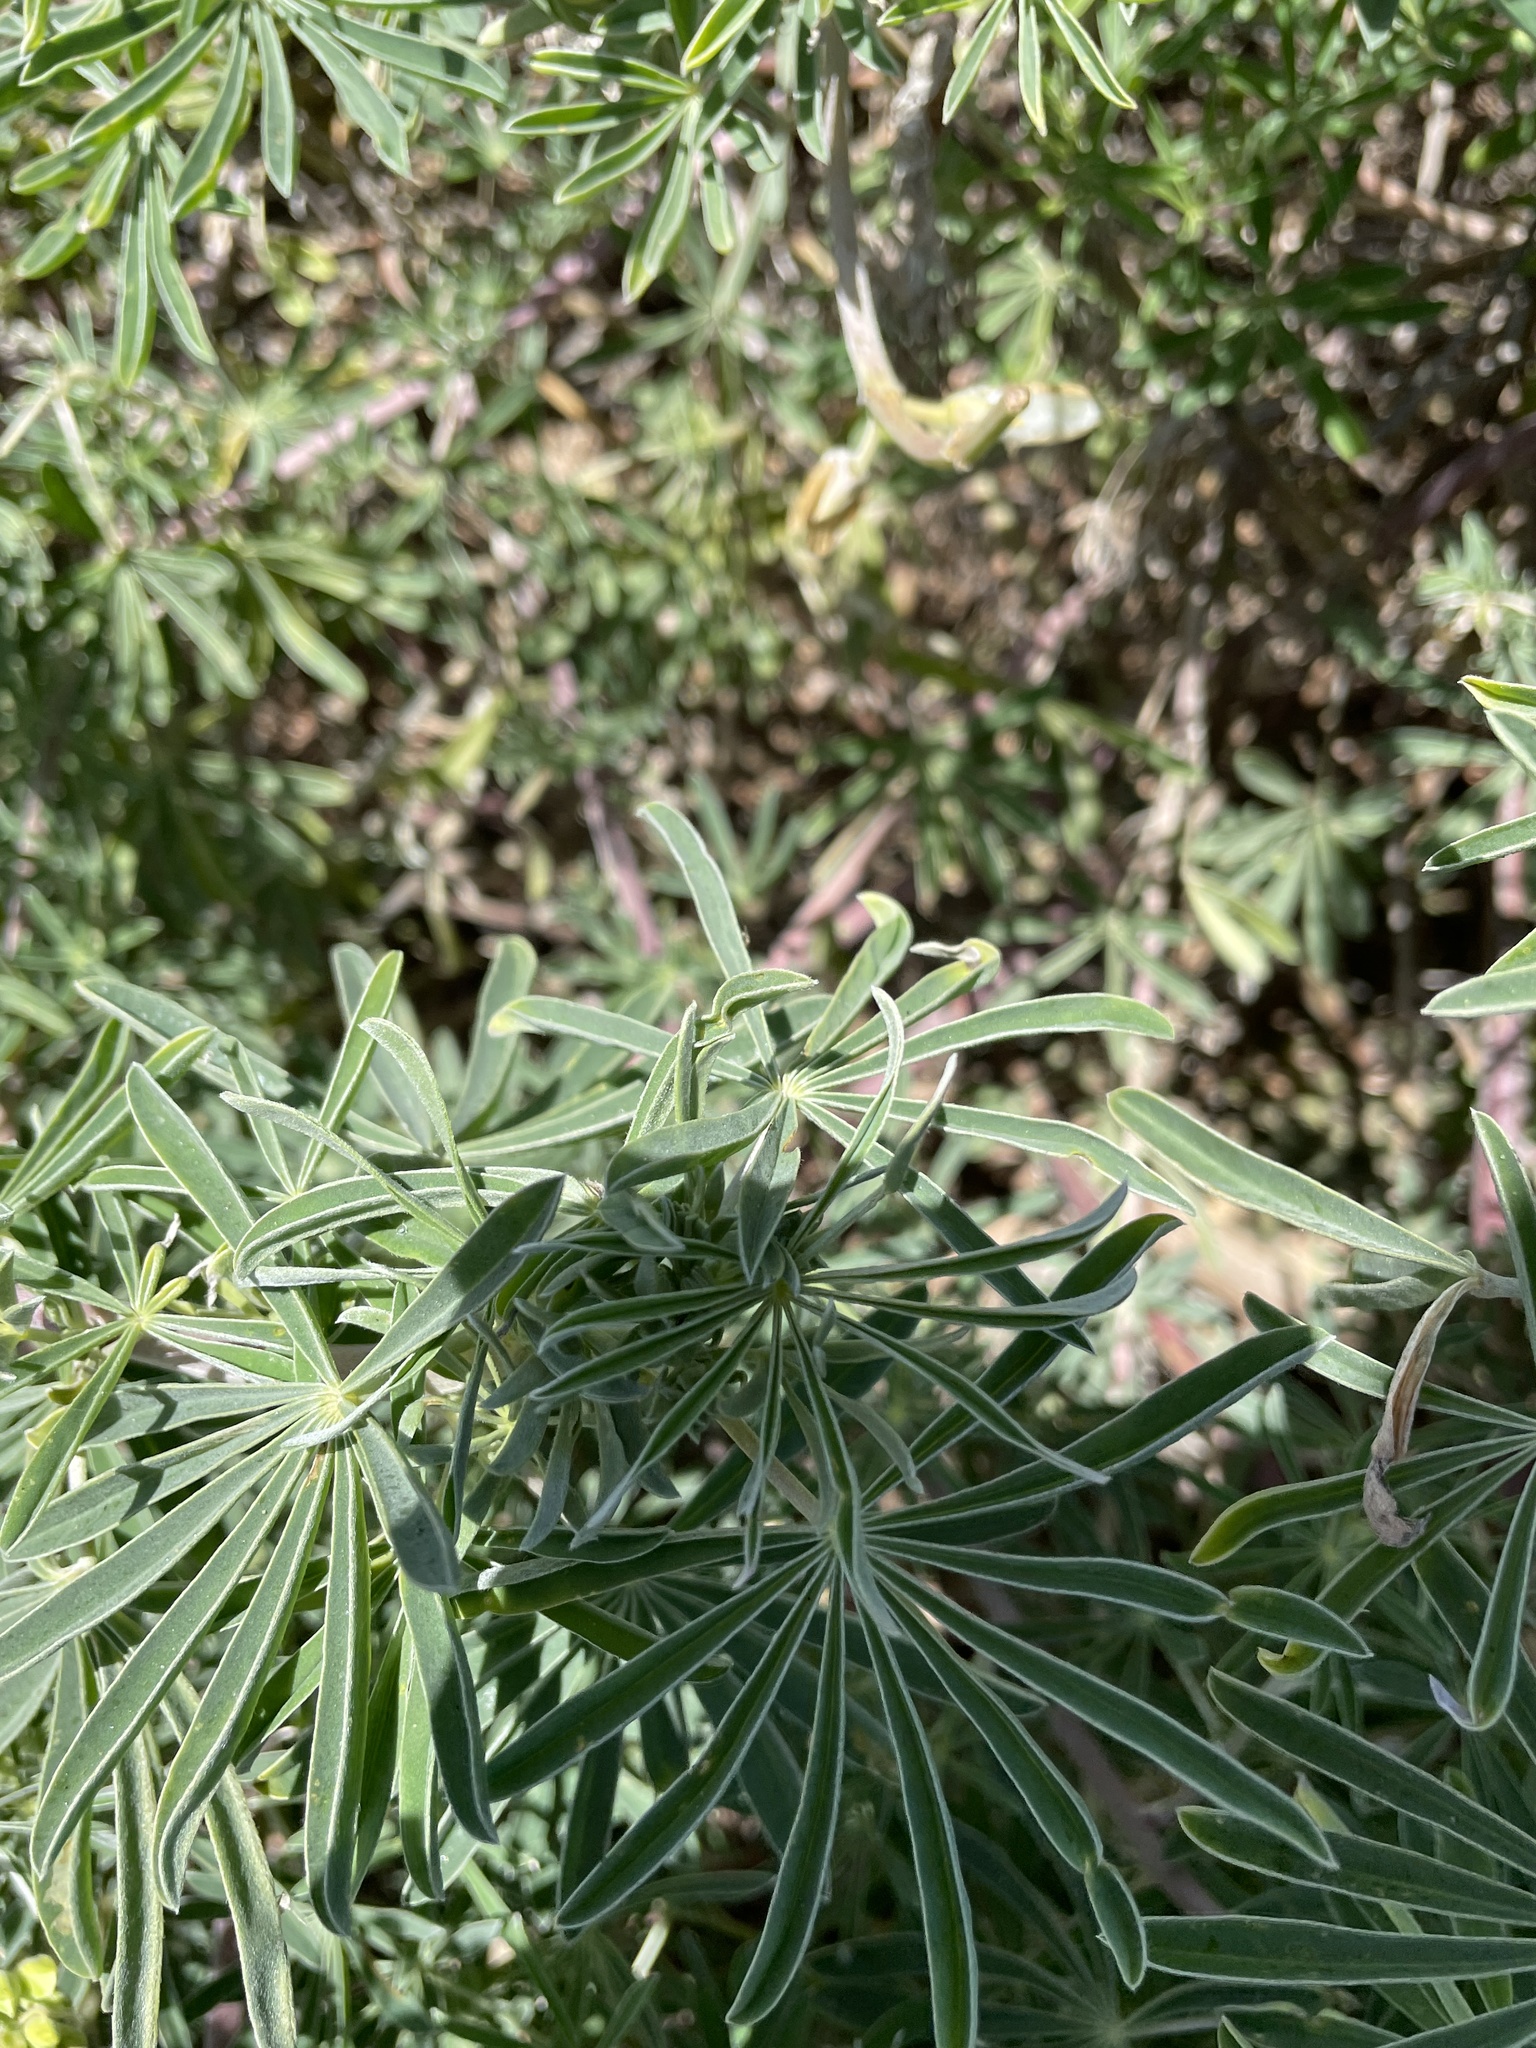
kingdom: Plantae
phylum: Tracheophyta
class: Magnoliopsida
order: Fabales
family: Fabaceae
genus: Lupinus
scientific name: Lupinus arboreus
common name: Yellow bush lupine
